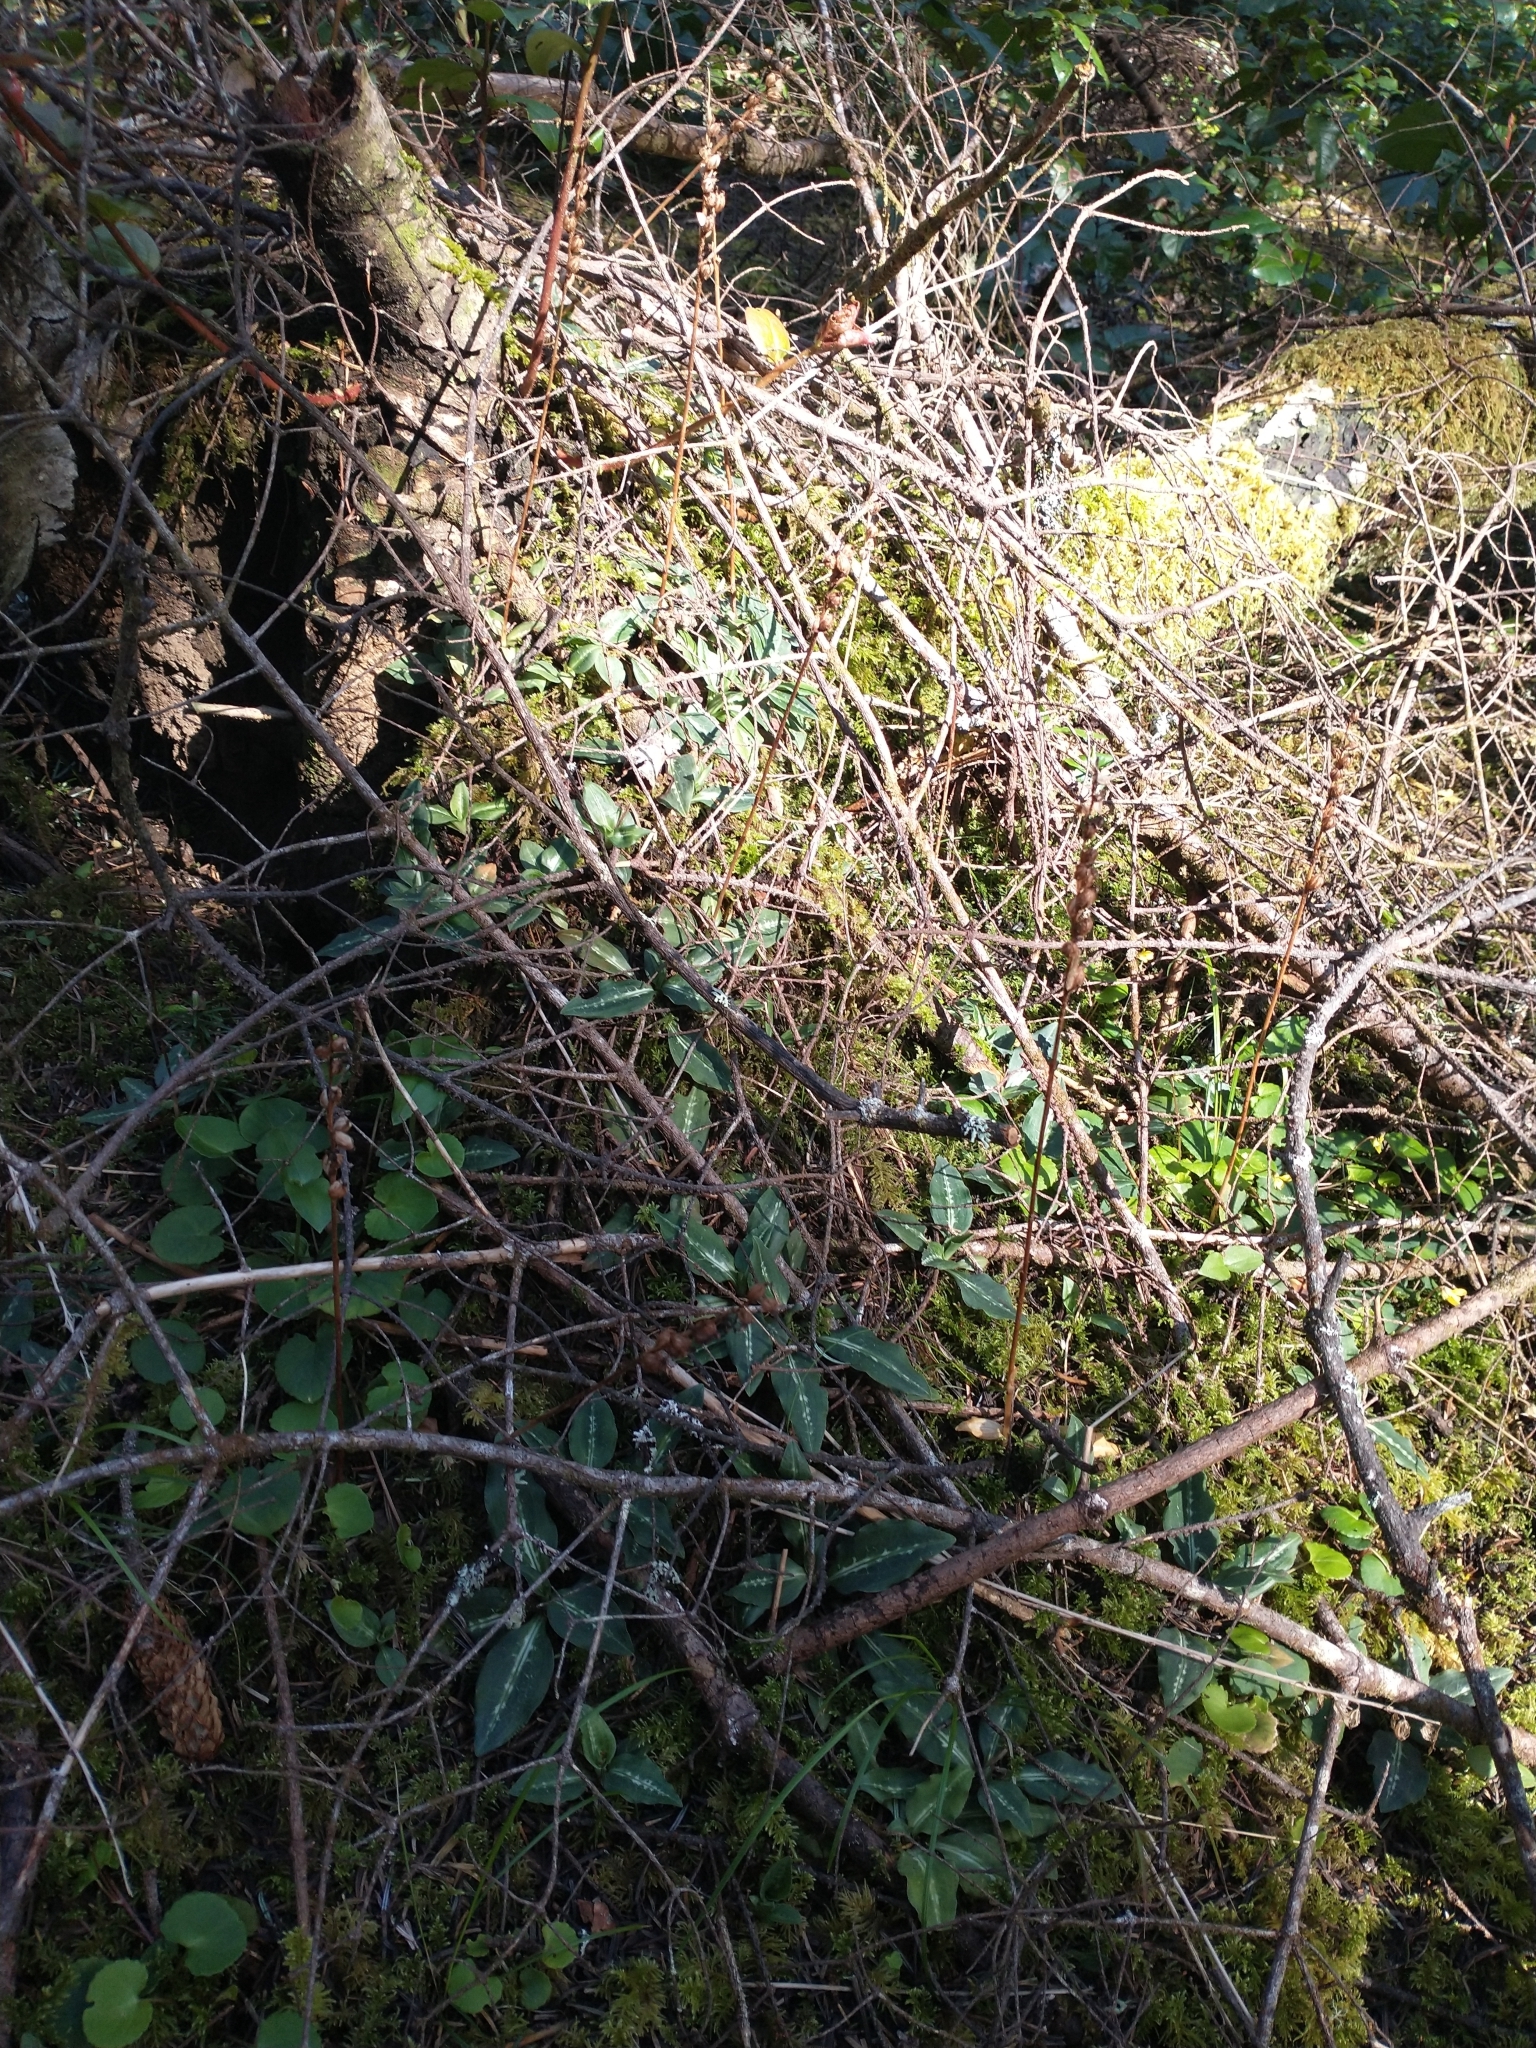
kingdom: Plantae
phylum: Tracheophyta
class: Liliopsida
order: Asparagales
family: Orchidaceae
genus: Goodyera
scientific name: Goodyera oblongifolia
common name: Giant rattlesnake-plantain
